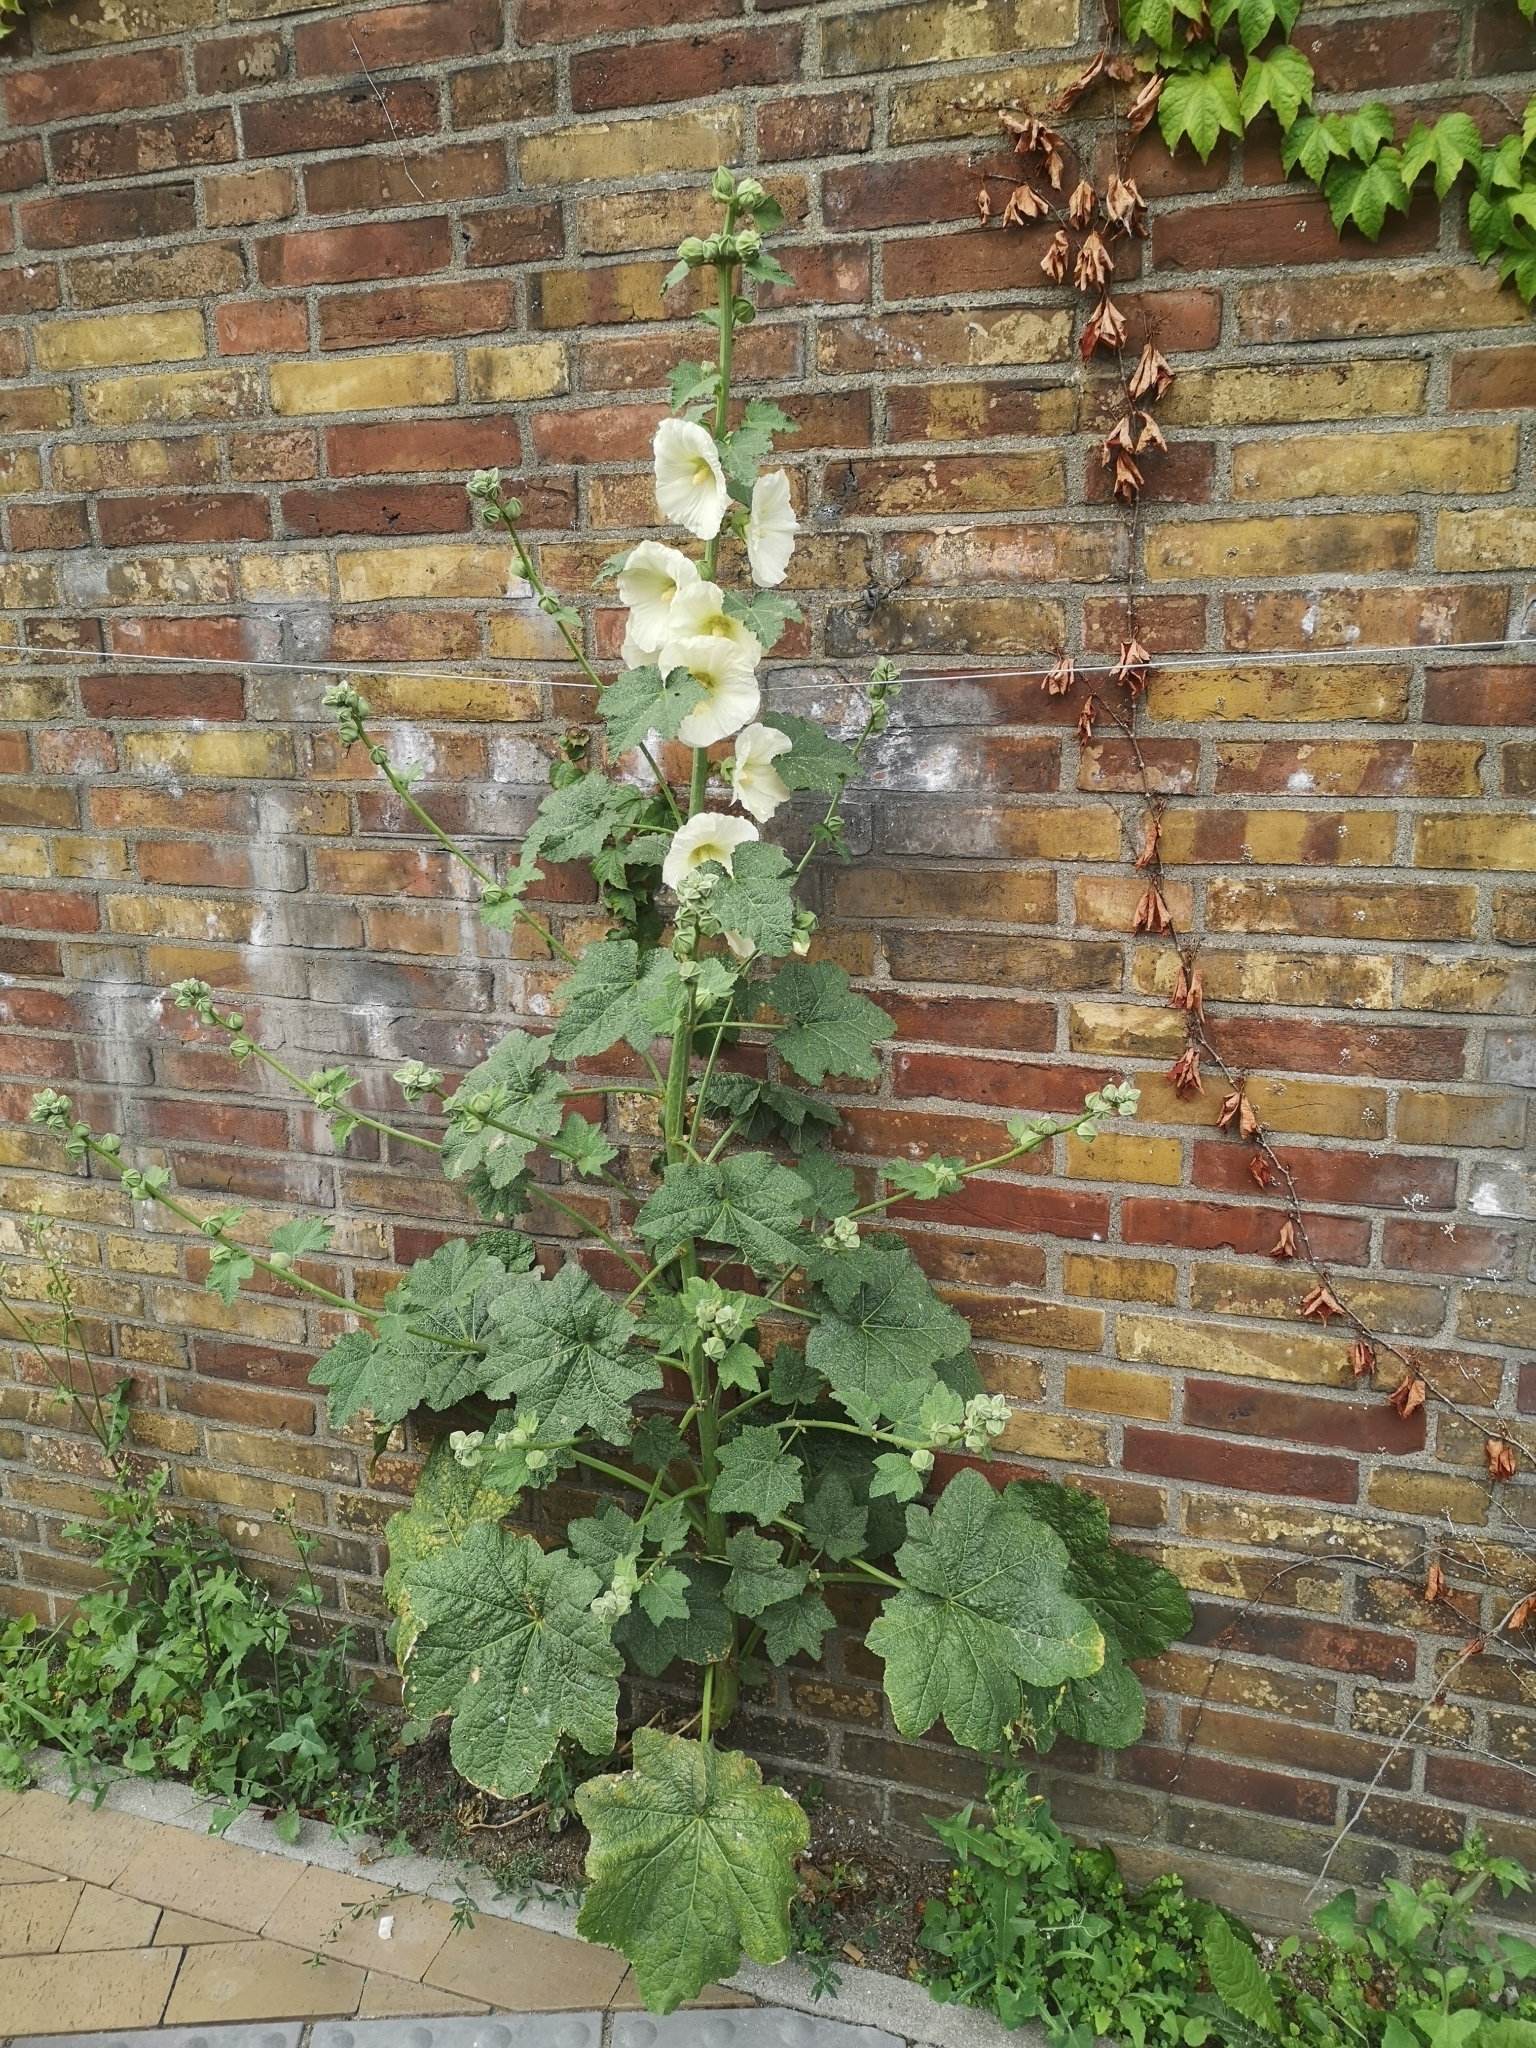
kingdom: Plantae
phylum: Tracheophyta
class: Magnoliopsida
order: Malvales
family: Malvaceae
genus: Alcea
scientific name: Alcea rosea
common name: Hollyhock
